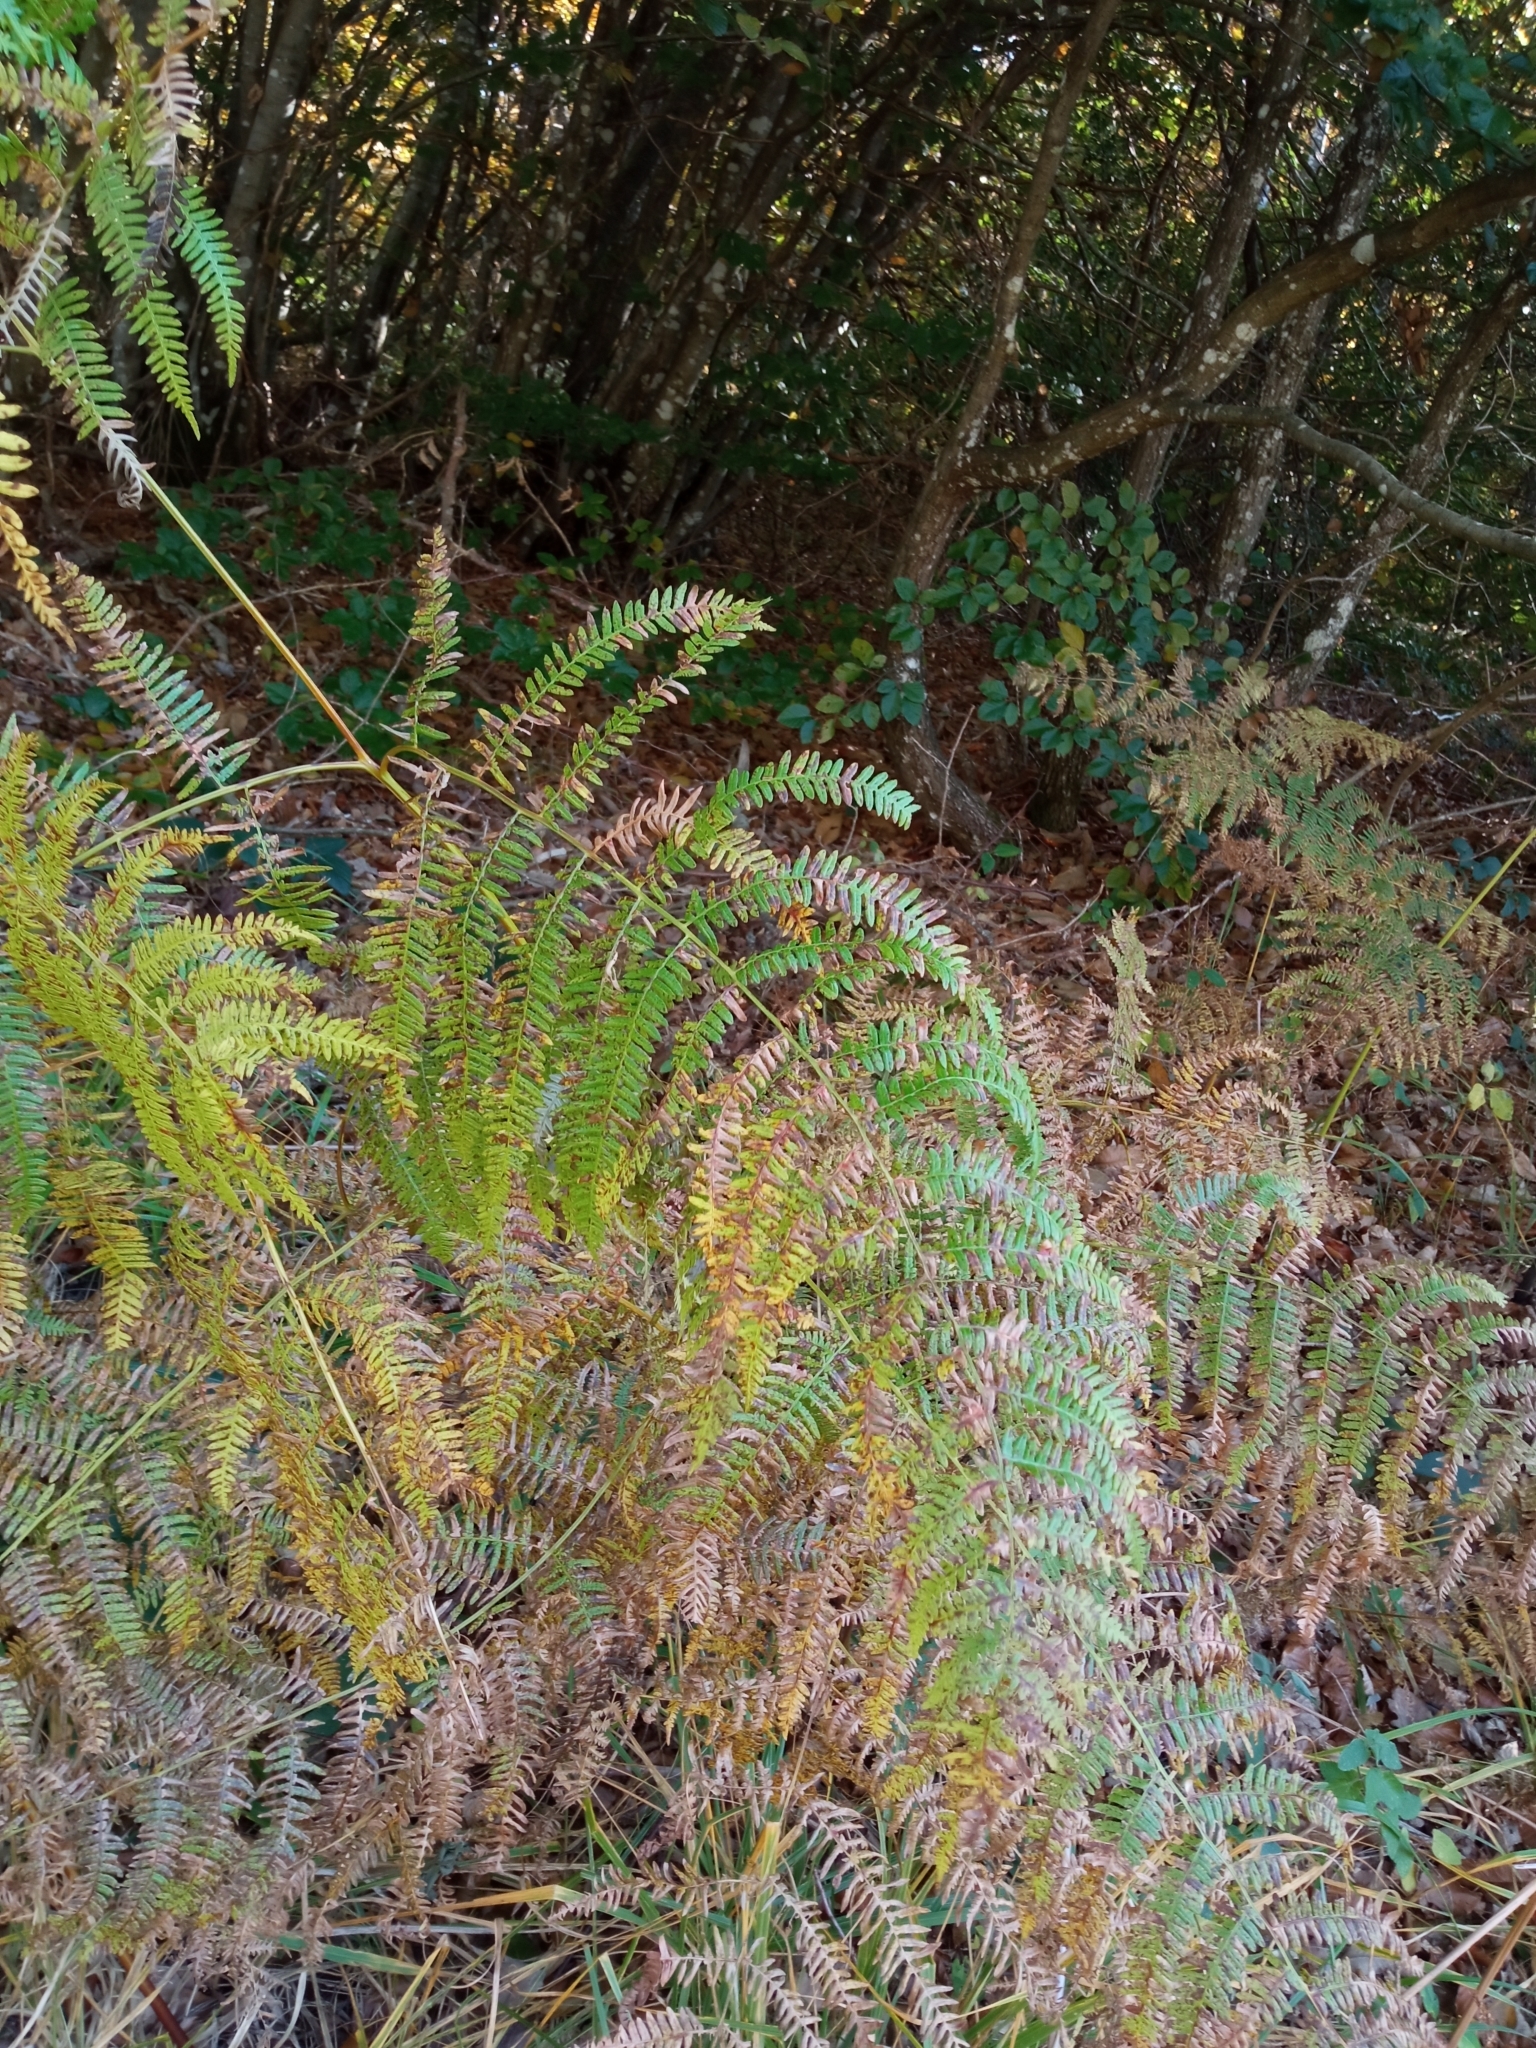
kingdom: Plantae
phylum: Tracheophyta
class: Polypodiopsida
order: Polypodiales
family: Dennstaedtiaceae
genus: Pteridium
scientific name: Pteridium aquilinum
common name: Bracken
